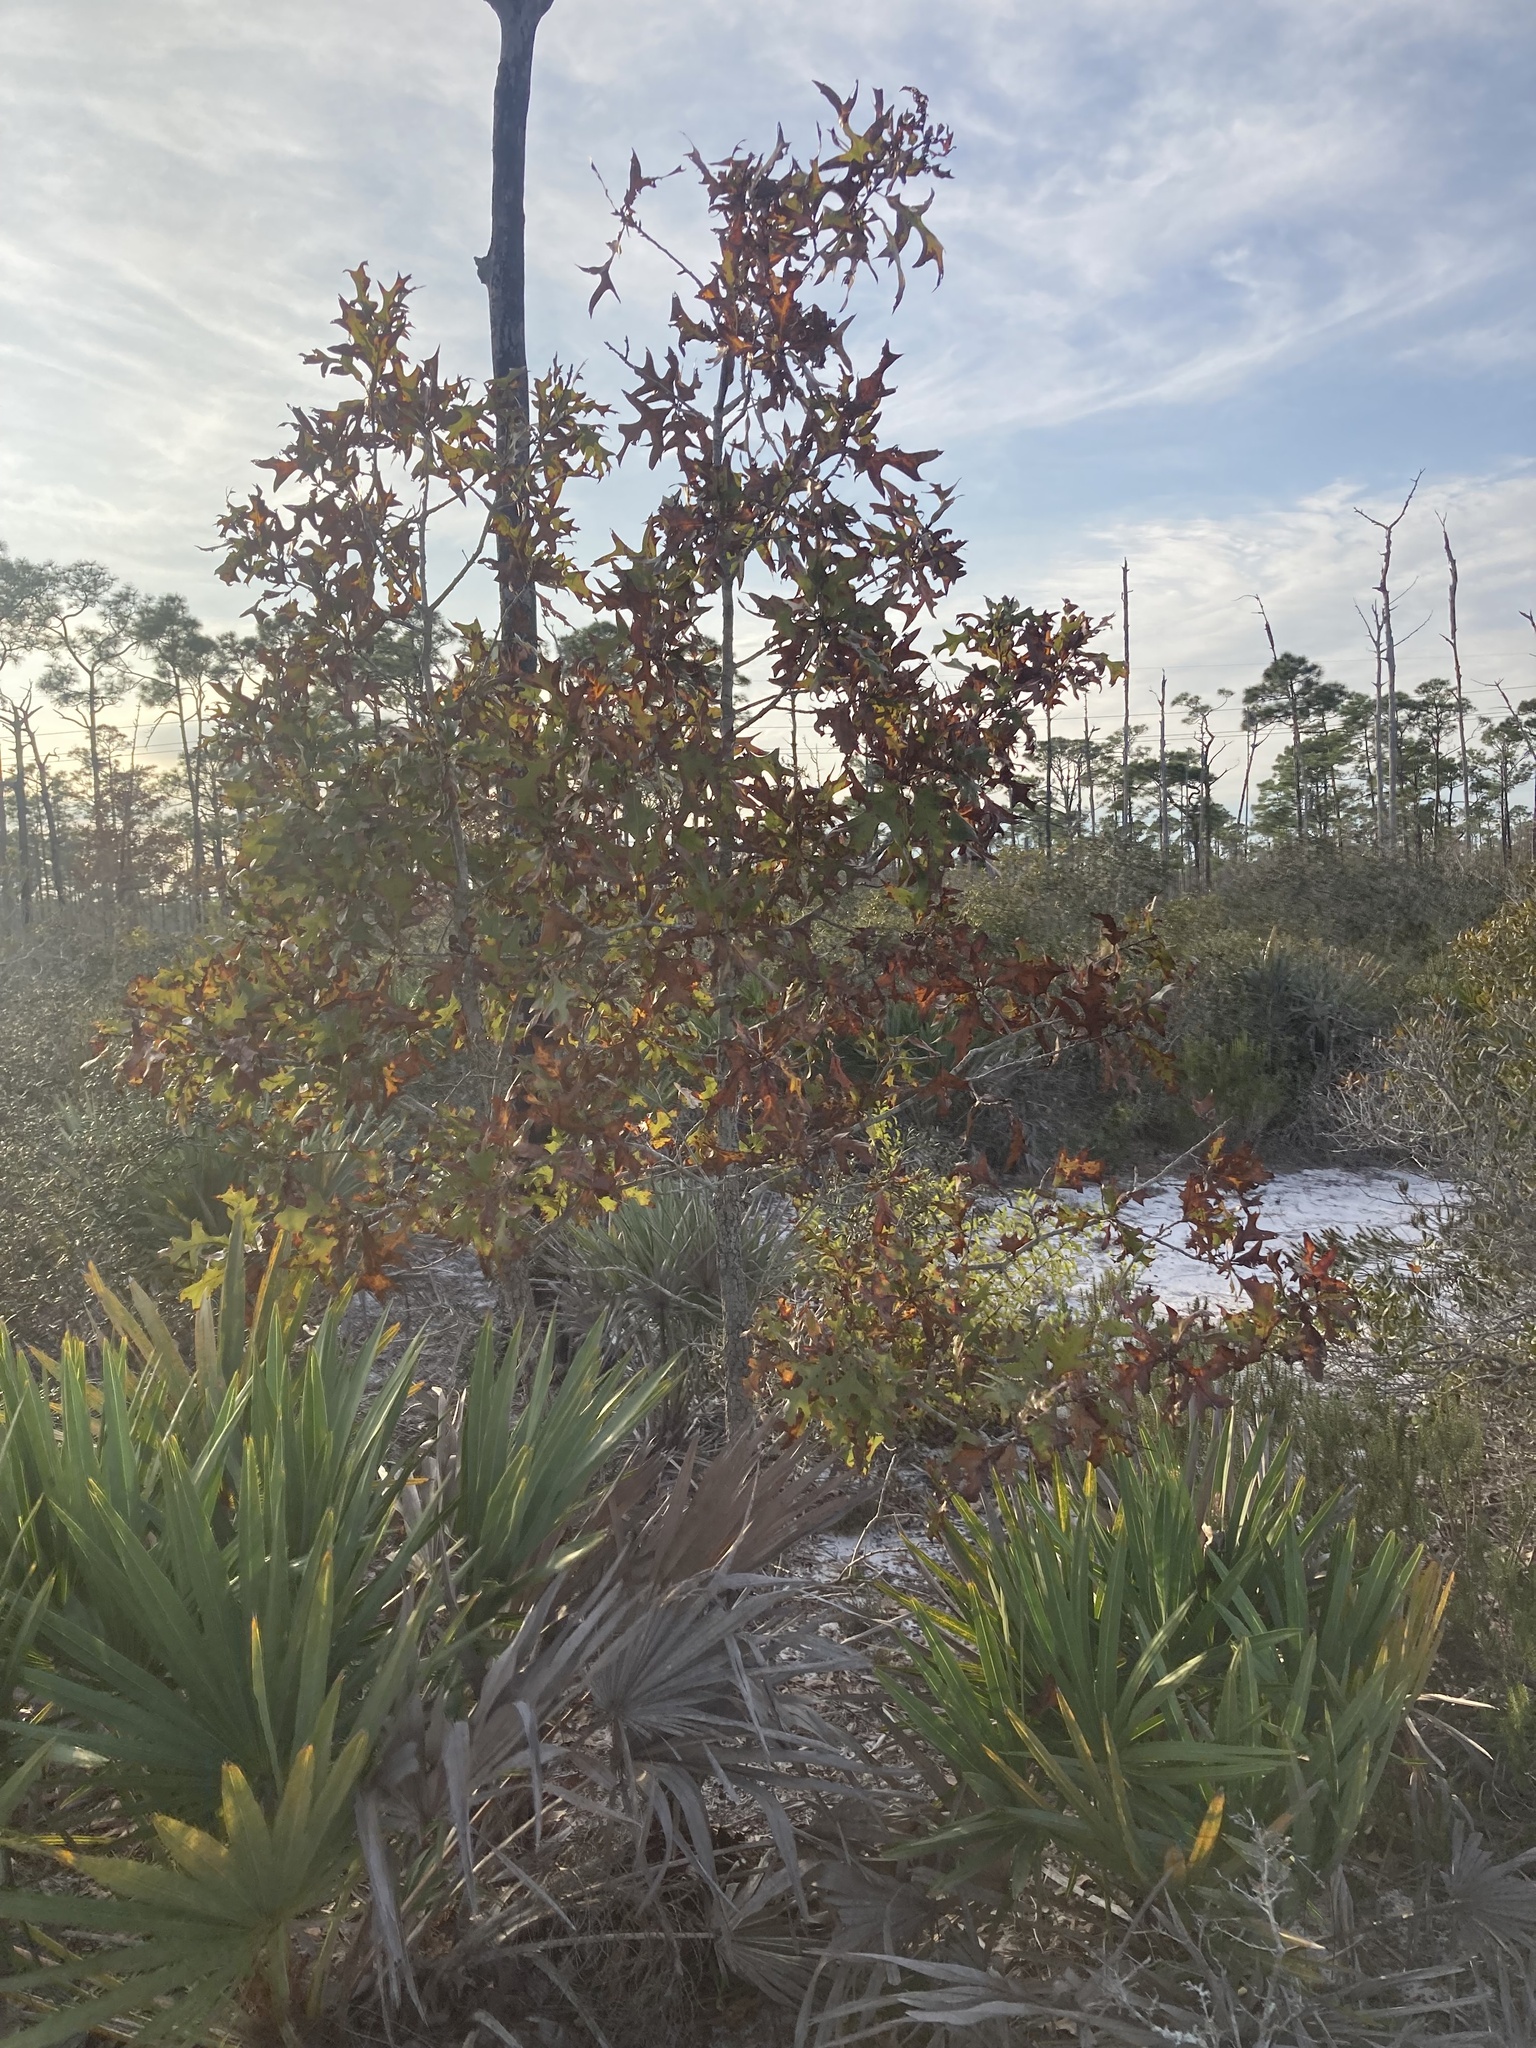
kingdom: Plantae
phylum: Tracheophyta
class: Magnoliopsida
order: Fagales
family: Fagaceae
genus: Quercus
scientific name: Quercus laevis
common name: Turkey oak
